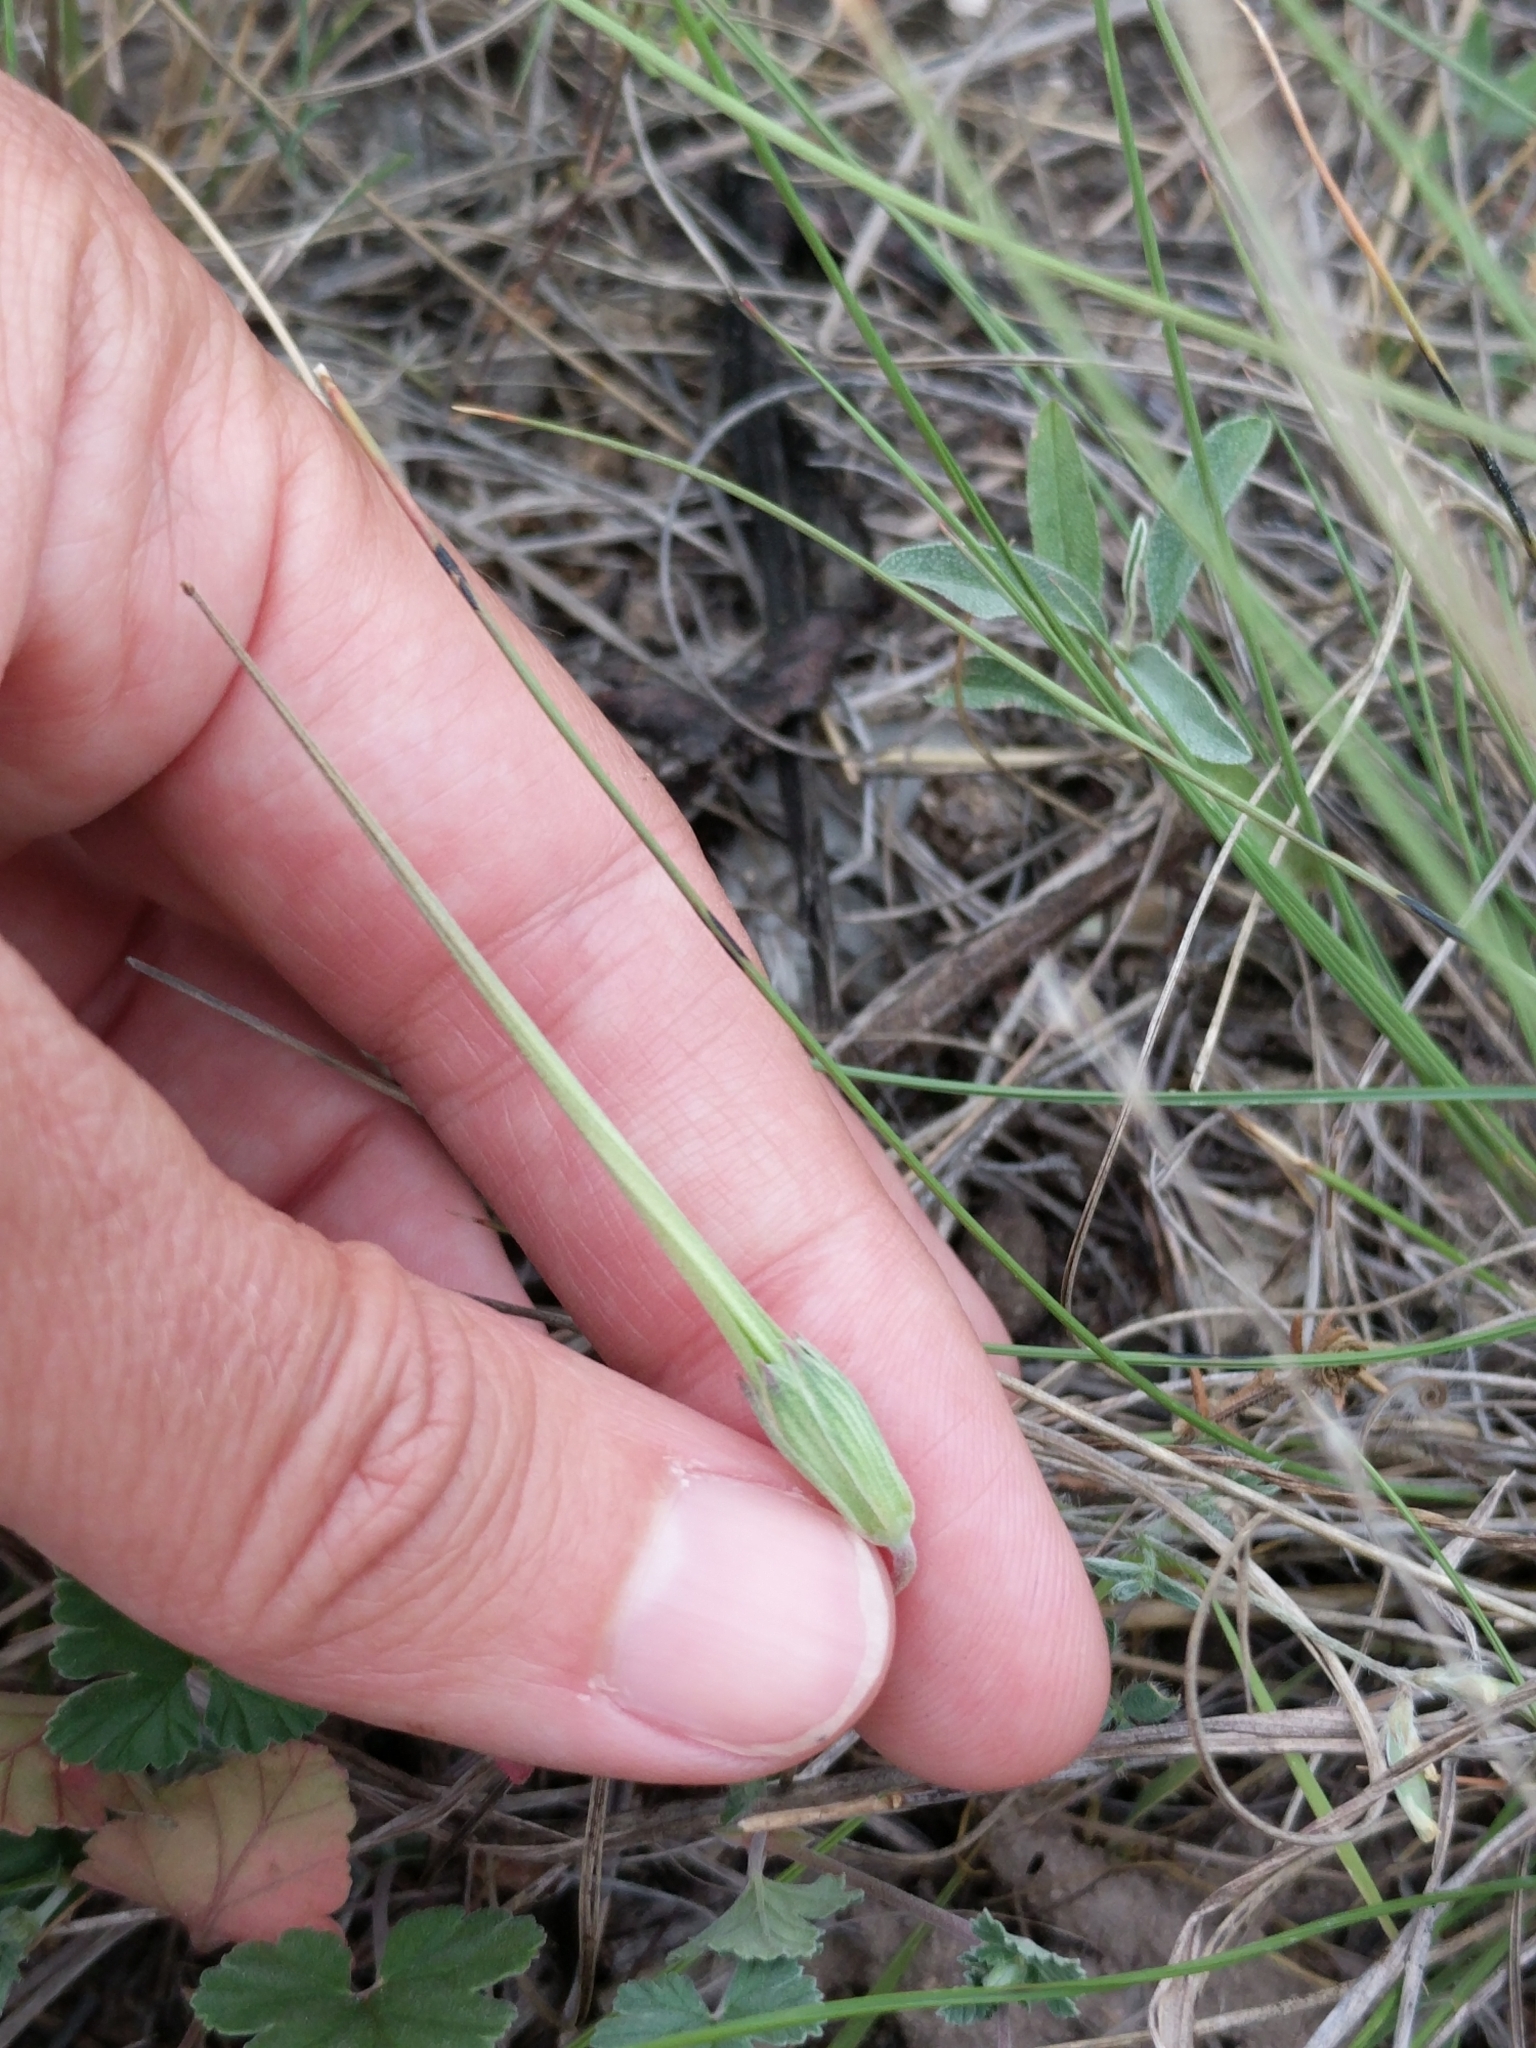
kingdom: Plantae
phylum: Tracheophyta
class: Magnoliopsida
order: Geraniales
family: Geraniaceae
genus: Erodium
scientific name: Erodium texanum
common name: Texas stork's-bill
